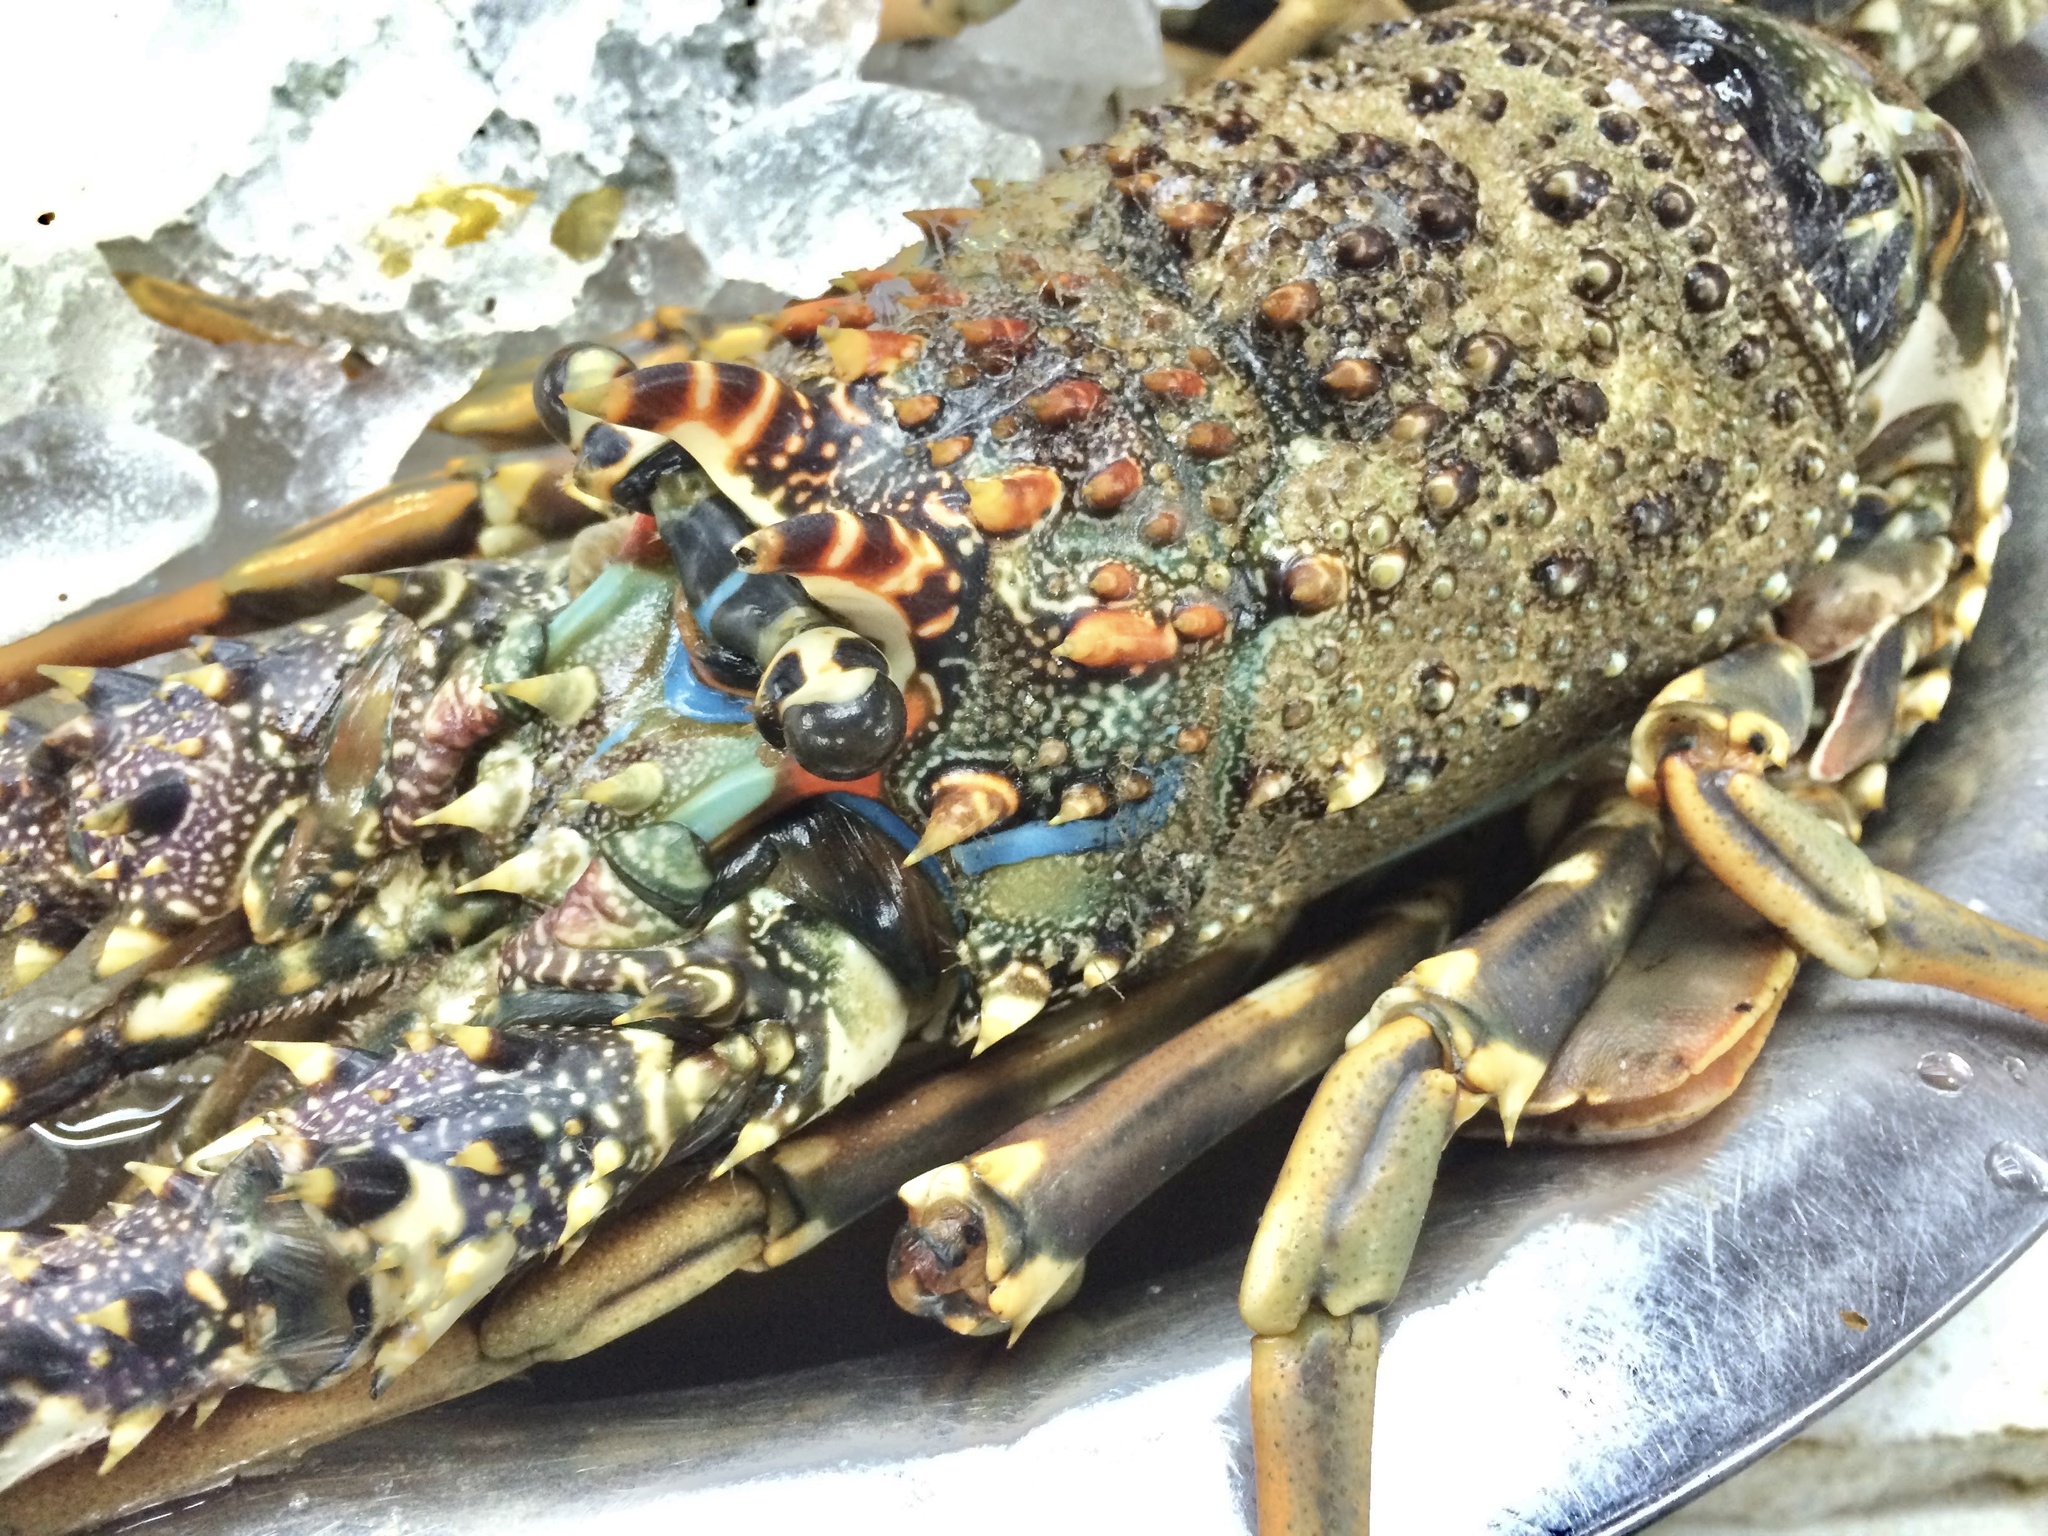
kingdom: Animalia
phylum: Arthropoda
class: Malacostraca
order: Decapoda
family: Palinuridae
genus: Panulirus
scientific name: Panulirus homarus
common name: Scalloped spiny lobster
